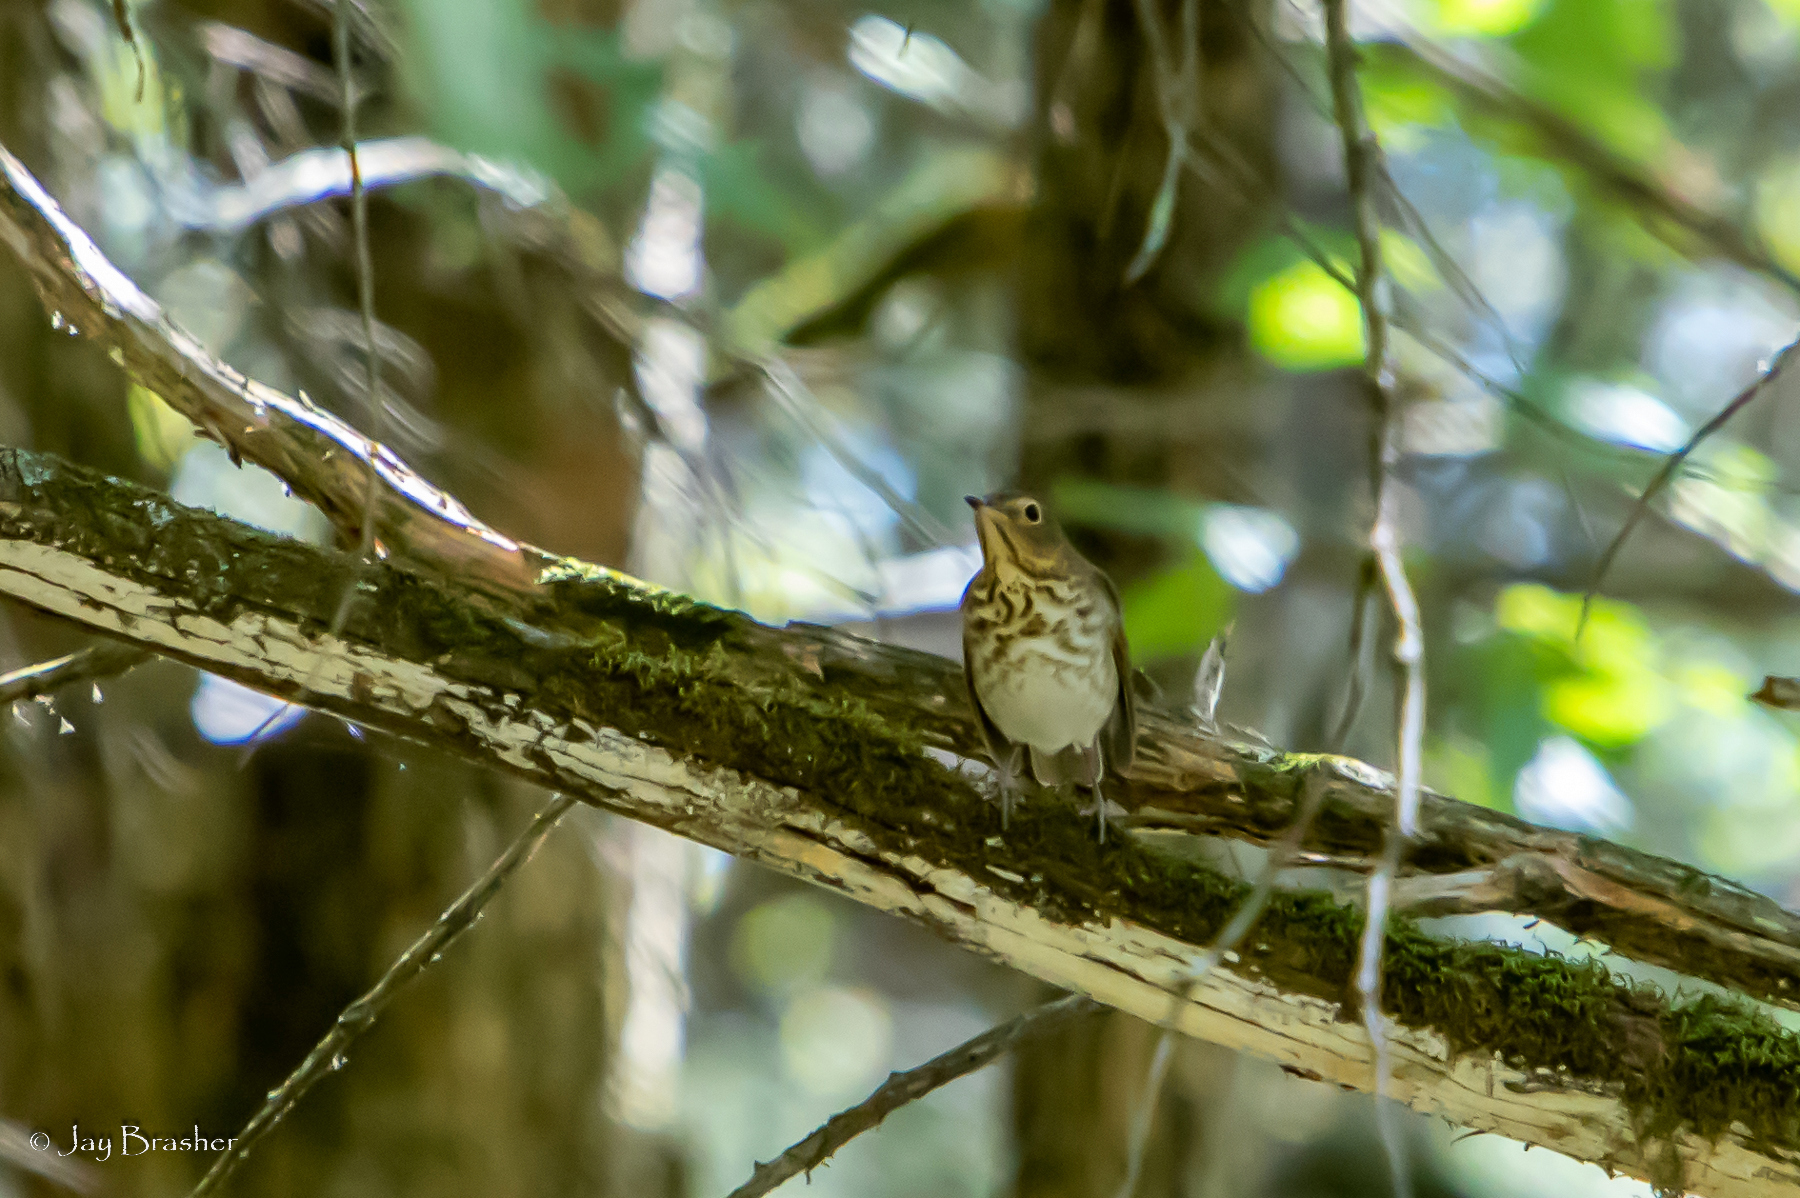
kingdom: Animalia
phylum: Chordata
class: Aves
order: Passeriformes
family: Turdidae
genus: Catharus
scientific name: Catharus ustulatus
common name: Swainson's thrush
